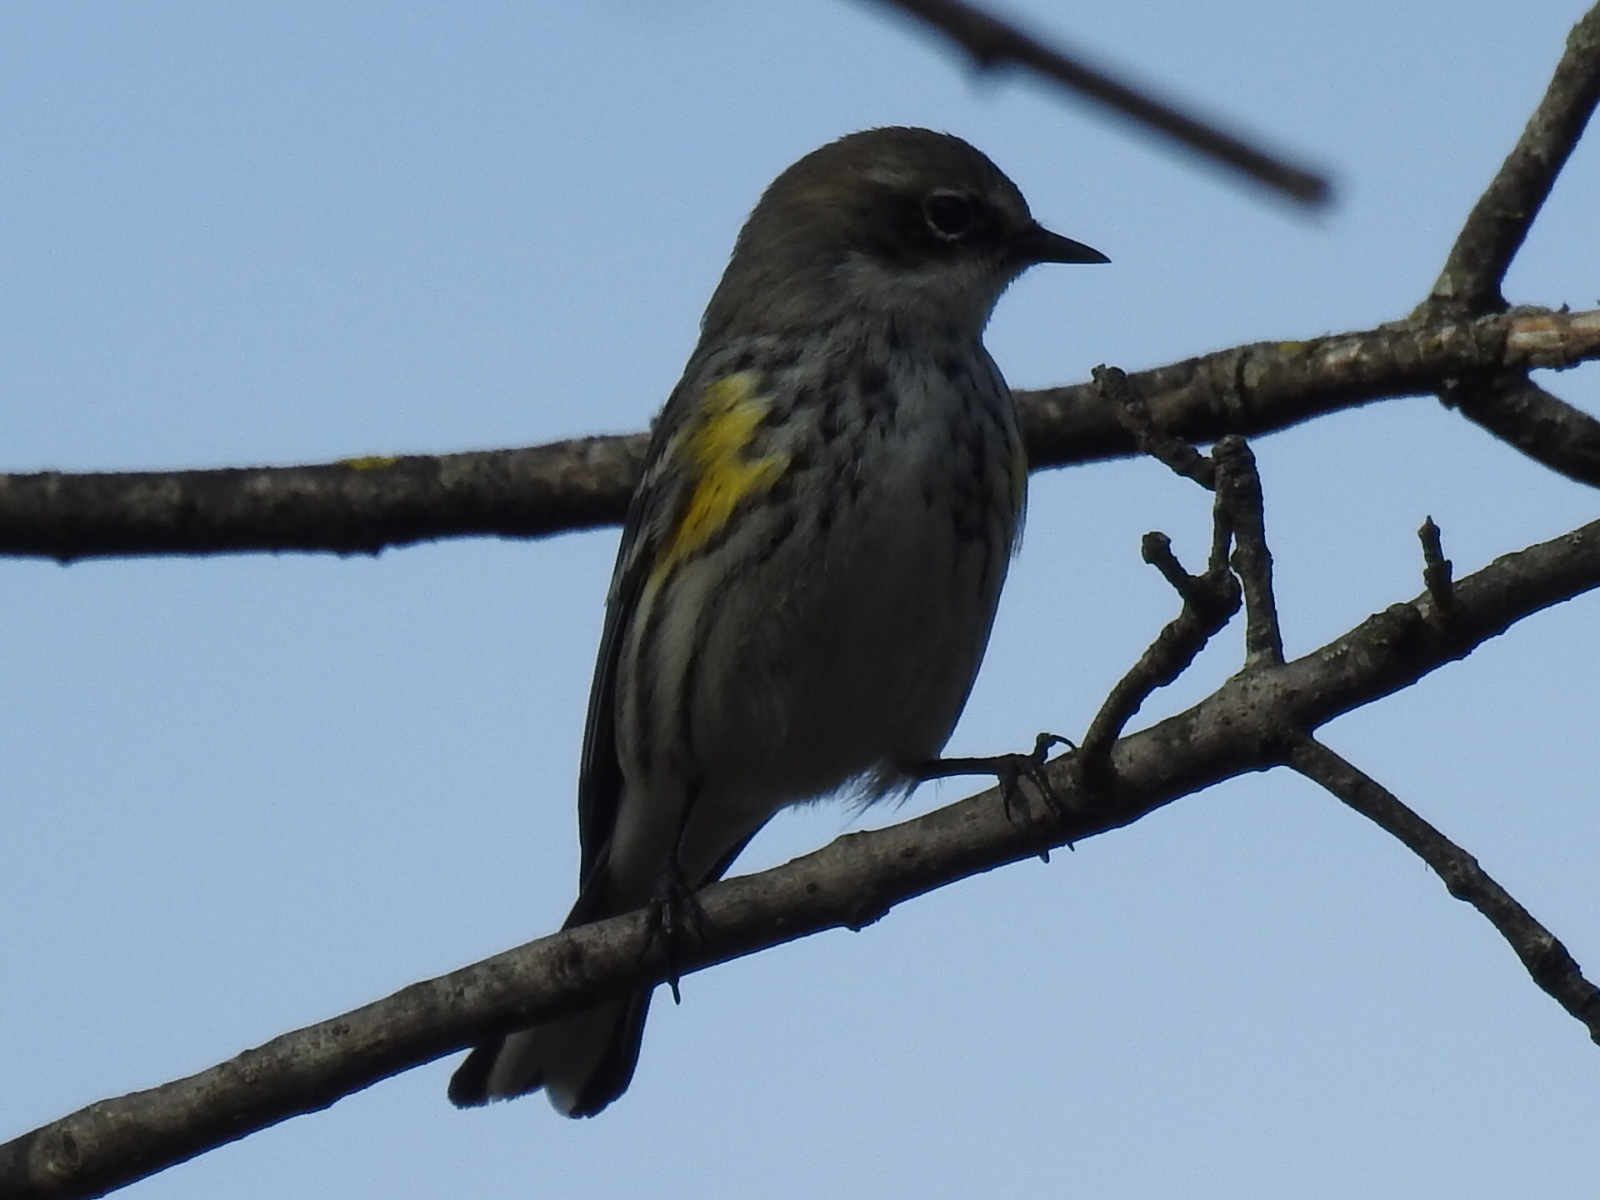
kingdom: Animalia
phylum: Chordata
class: Aves
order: Passeriformes
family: Parulidae
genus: Setophaga
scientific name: Setophaga coronata
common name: Myrtle warbler
